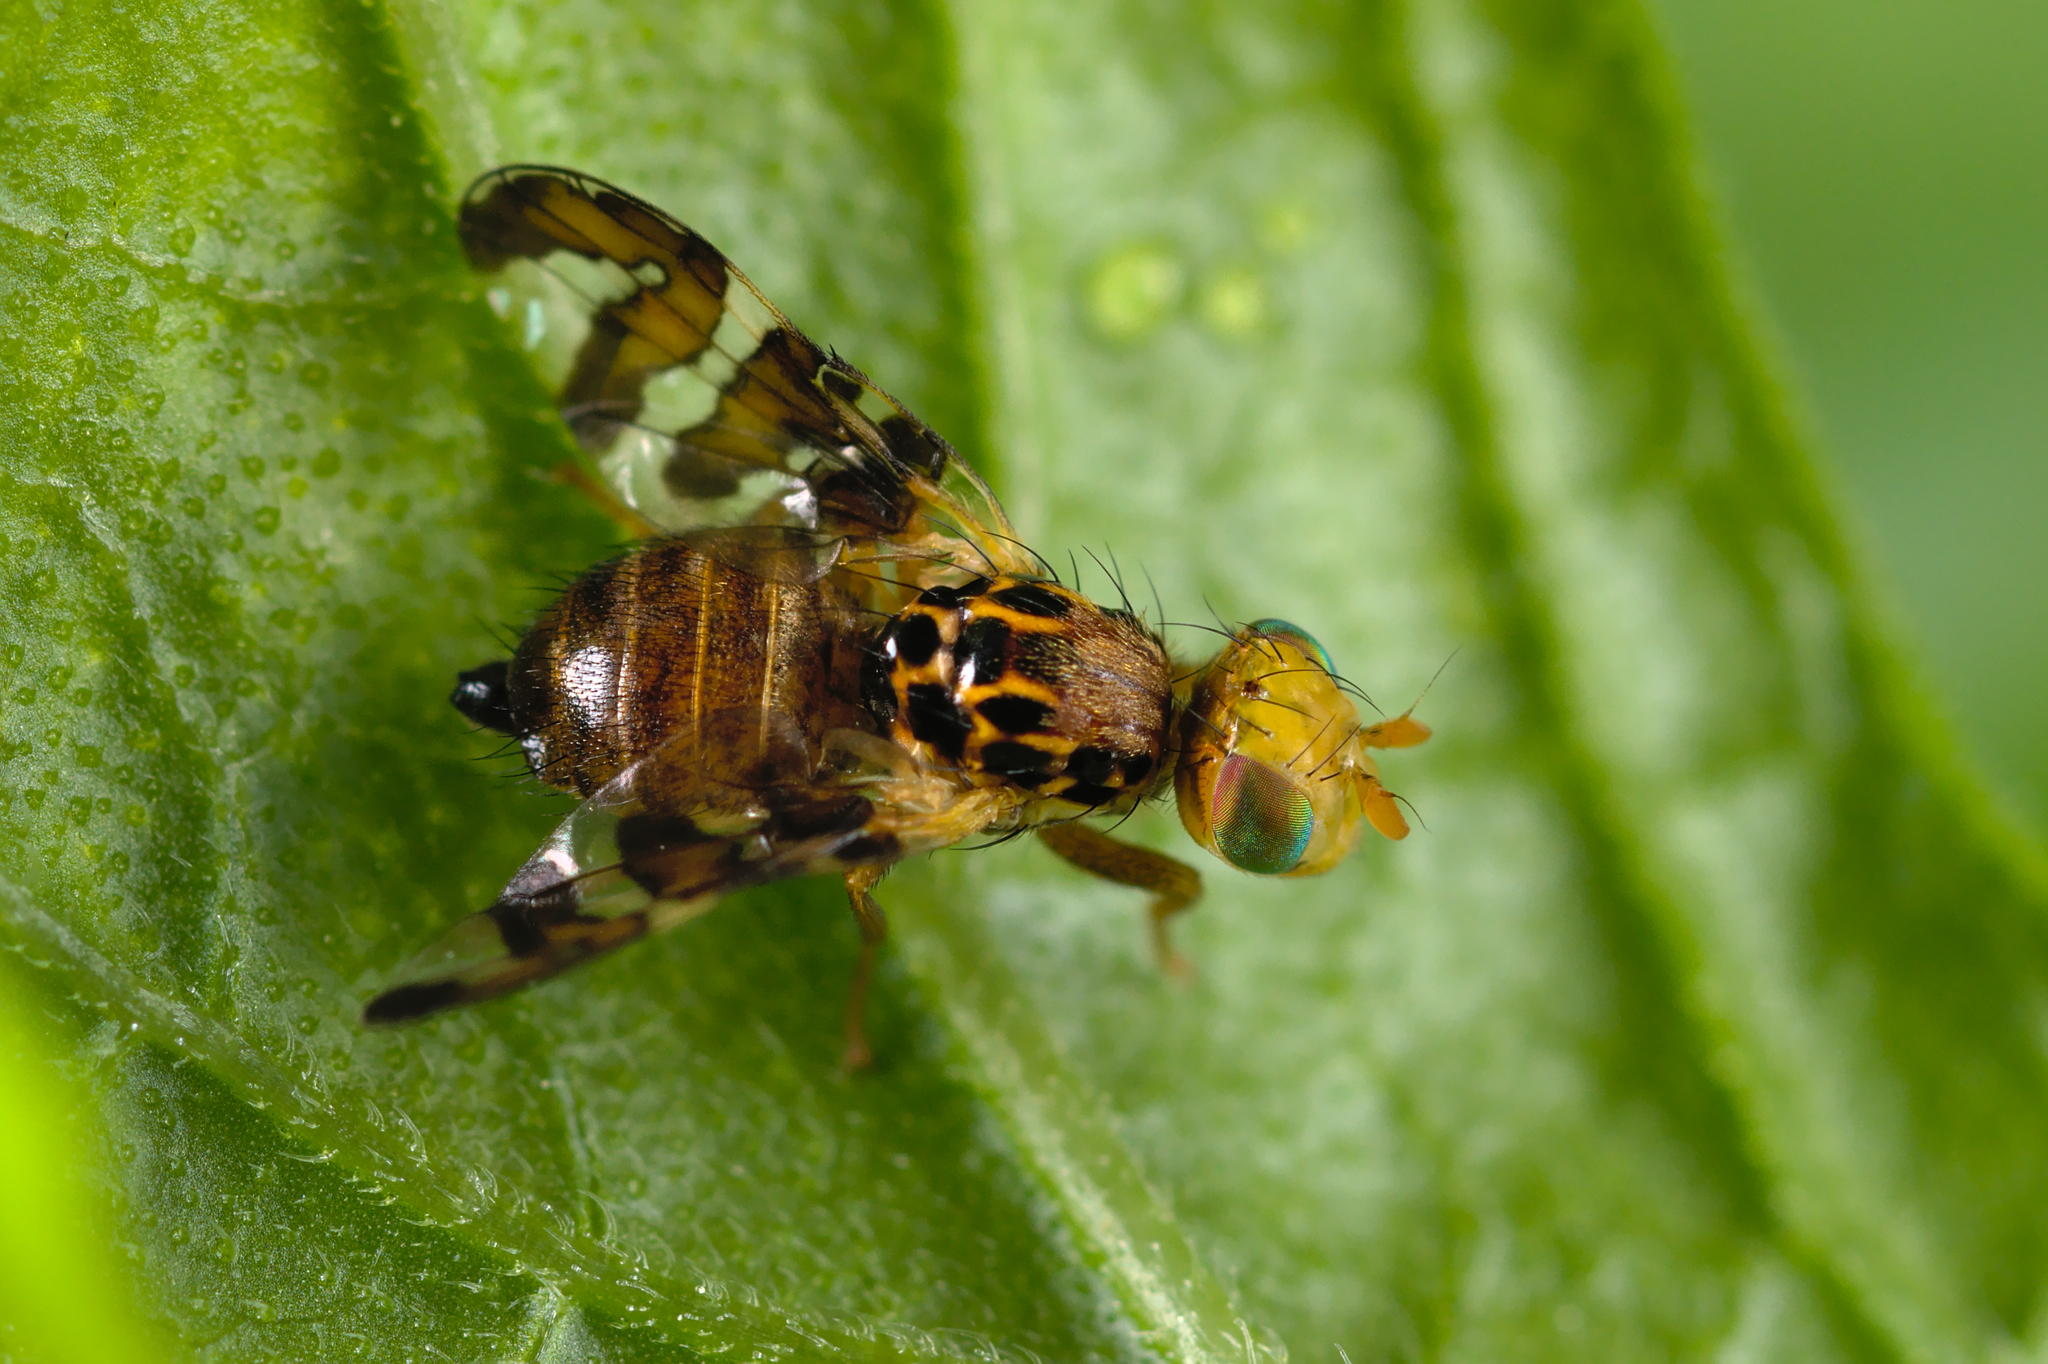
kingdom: Animalia
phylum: Arthropoda
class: Insecta
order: Diptera
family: Tephritidae
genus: Carpomya
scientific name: Carpomya wiedemanni
